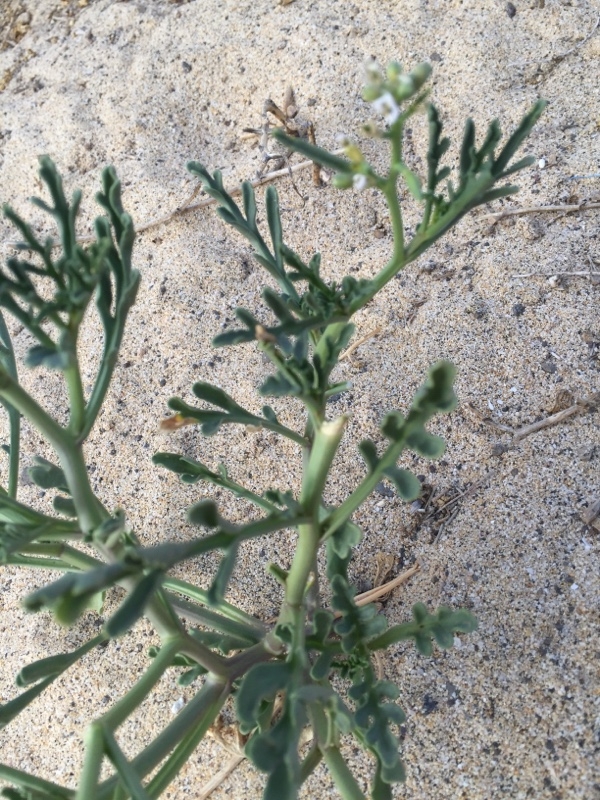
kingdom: Plantae
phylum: Tracheophyta
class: Magnoliopsida
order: Brassicales
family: Brassicaceae
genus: Cakile
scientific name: Cakile maritima
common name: Sea rocket
